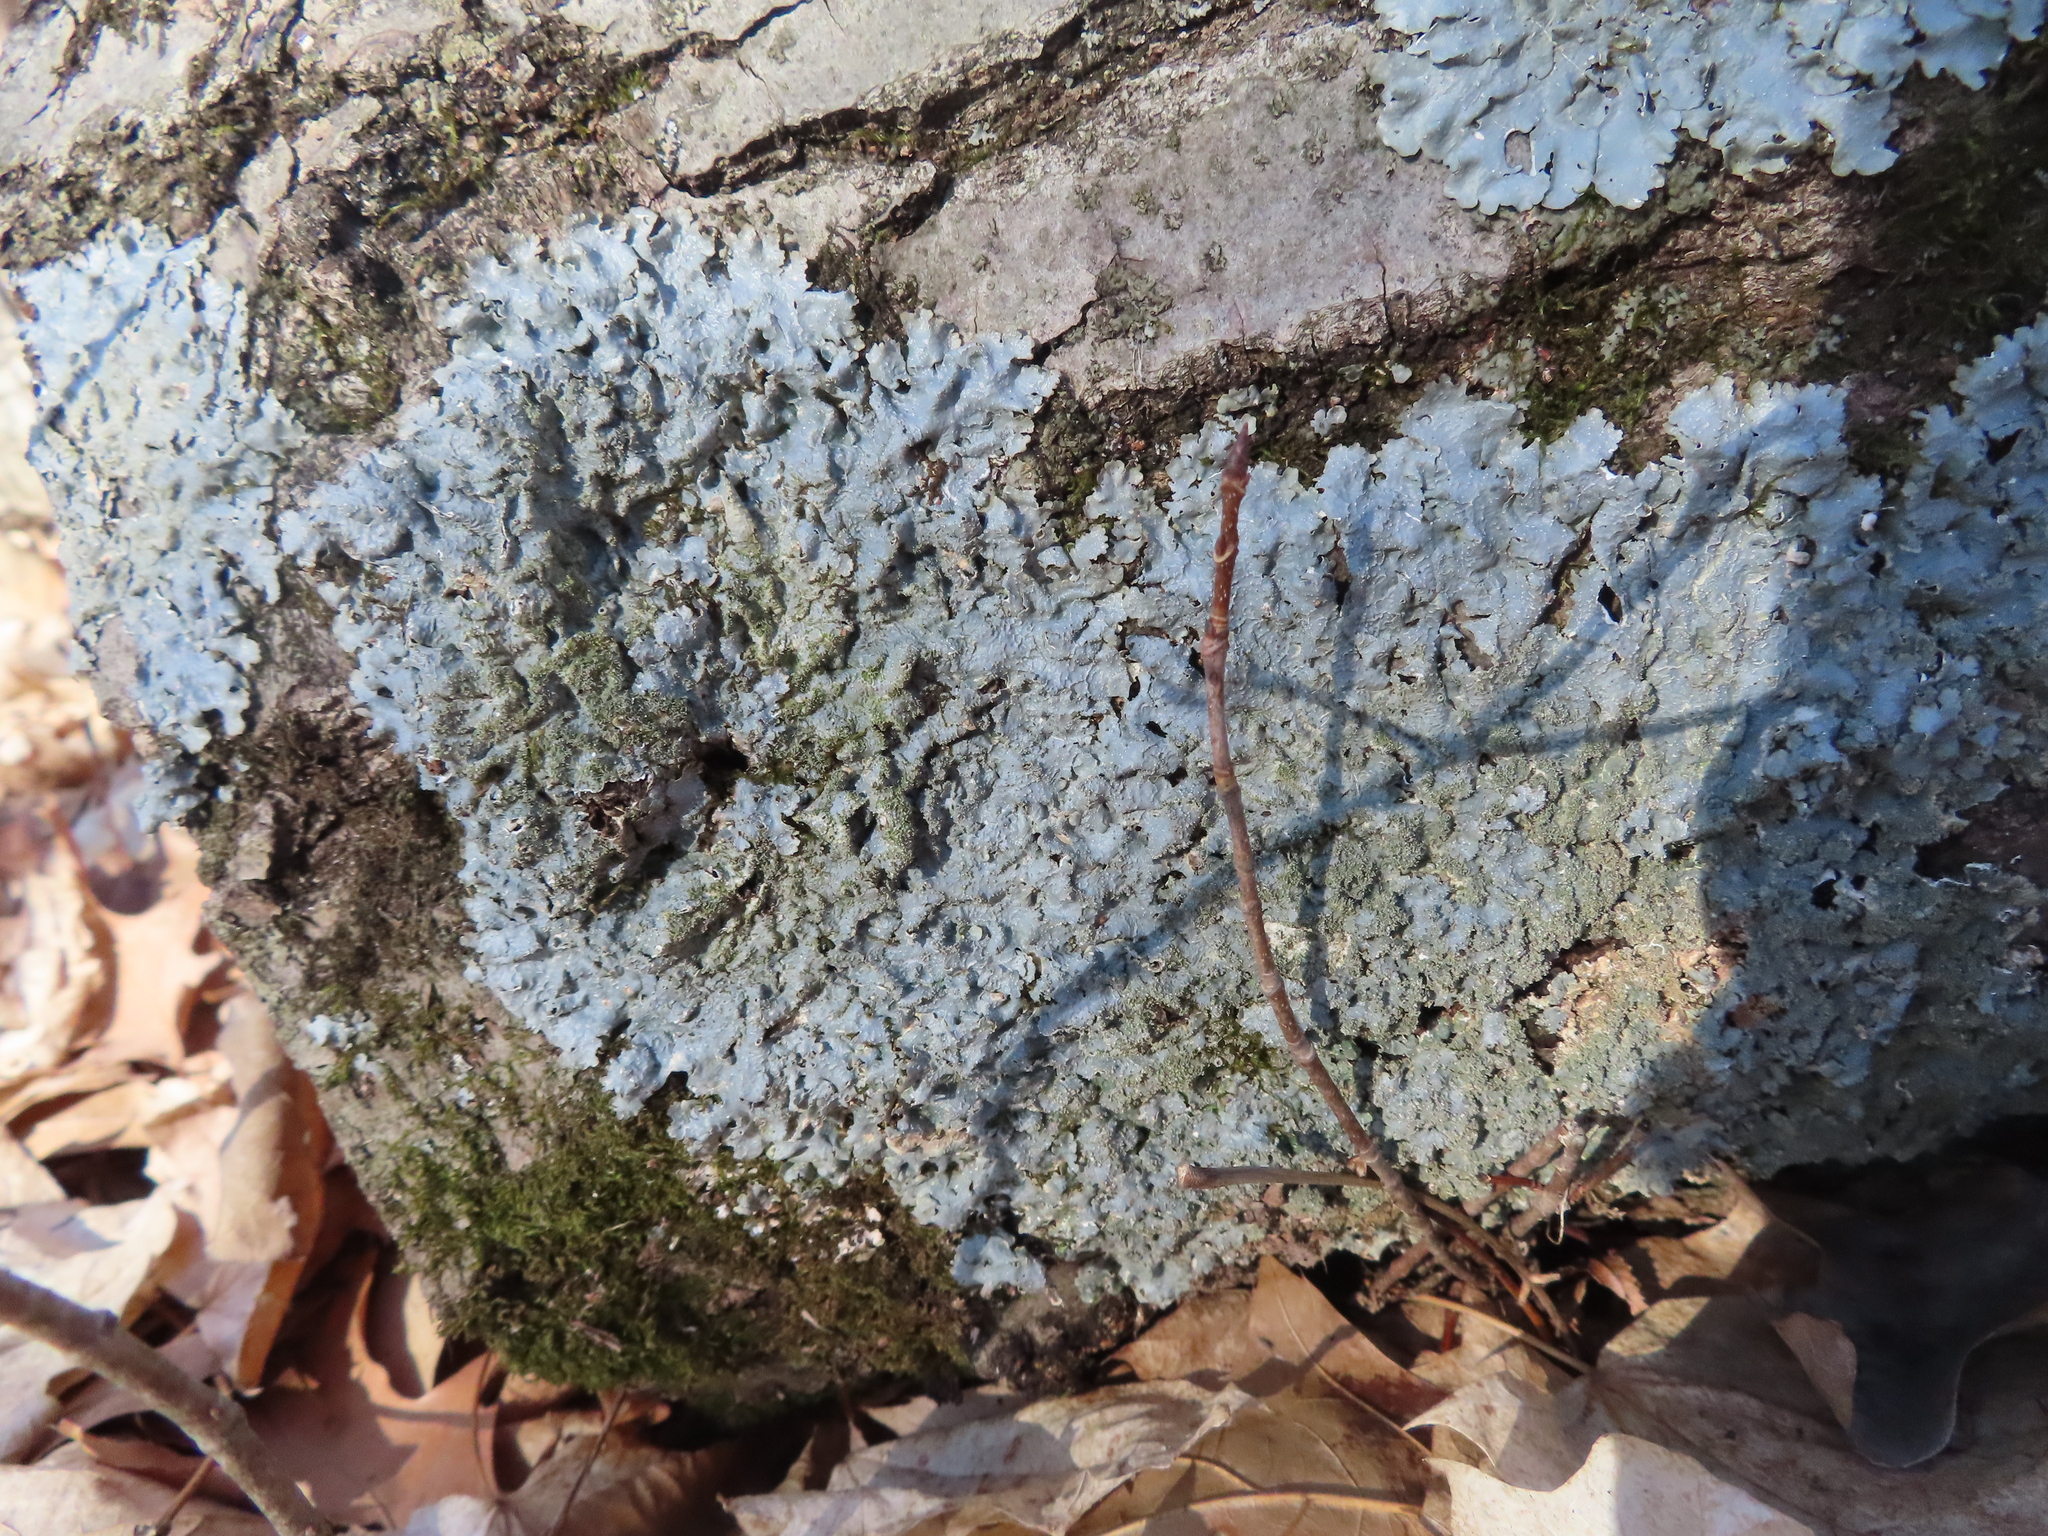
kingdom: Fungi
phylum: Ascomycota
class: Lecanoromycetes
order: Lecanorales
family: Parmeliaceae
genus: Punctelia
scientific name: Punctelia rudecta
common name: Rough speckled shield lichen
